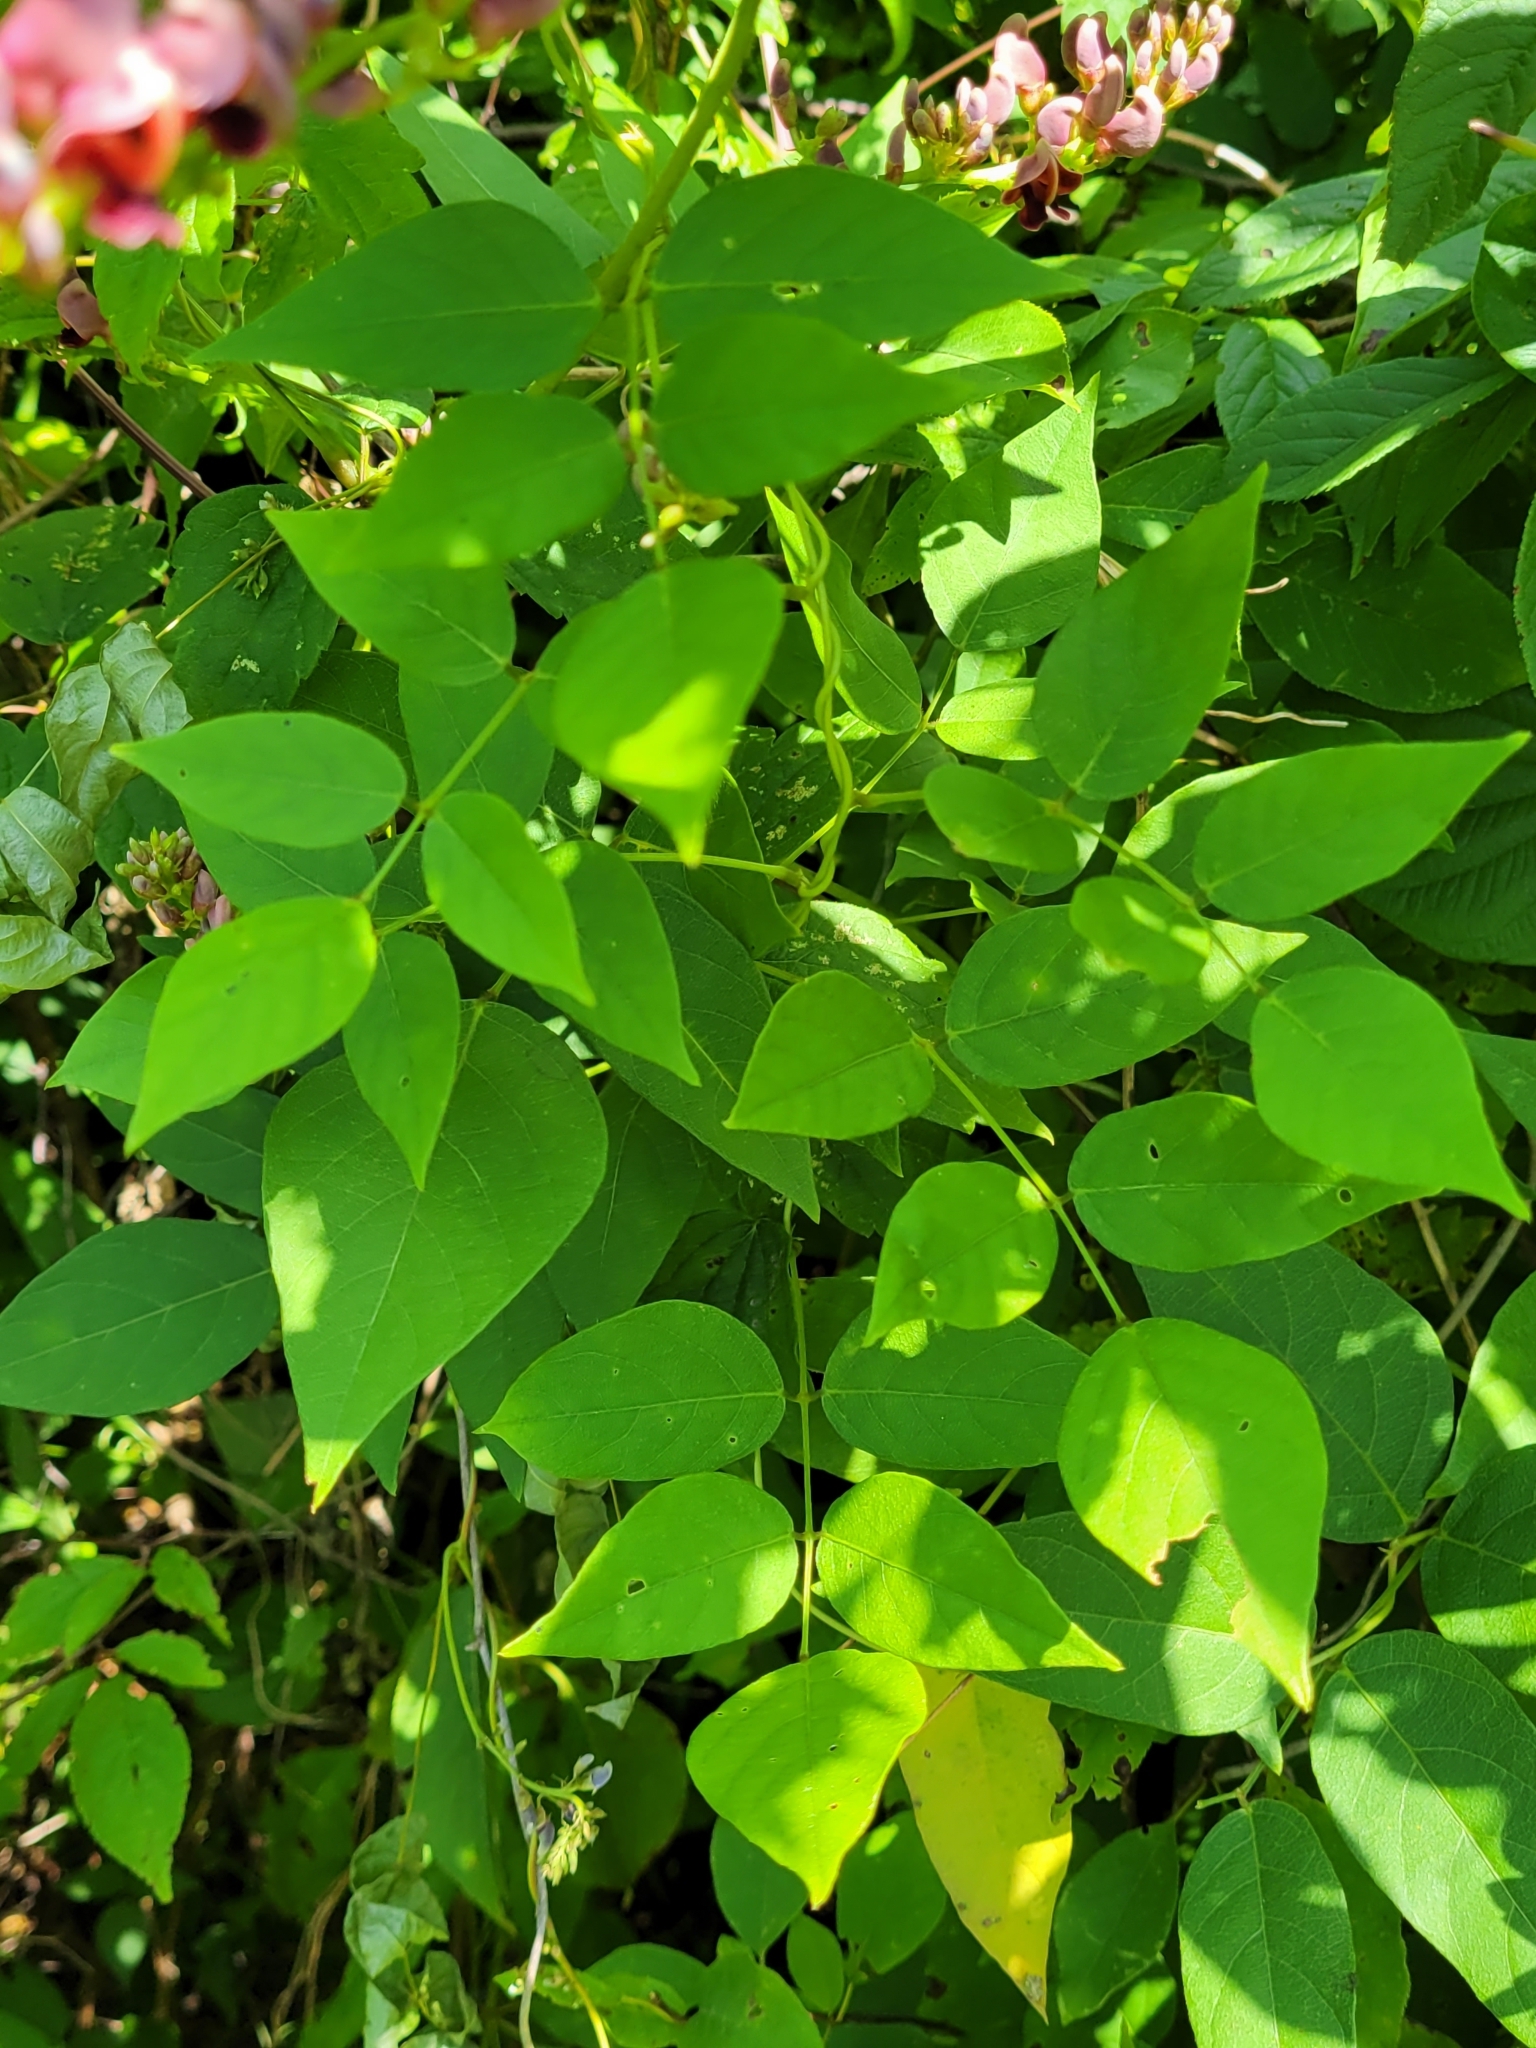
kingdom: Plantae
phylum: Tracheophyta
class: Magnoliopsida
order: Fabales
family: Fabaceae
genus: Apios
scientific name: Apios americana
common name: American potato-bean
